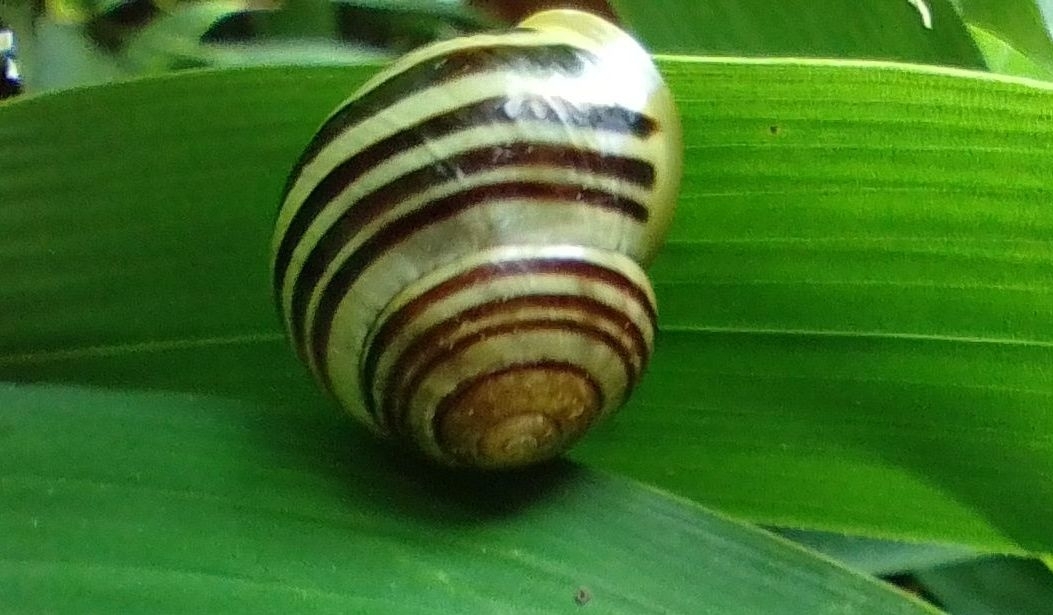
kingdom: Animalia
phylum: Mollusca
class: Gastropoda
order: Stylommatophora
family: Helicidae
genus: Cepaea
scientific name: Cepaea hortensis
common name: White-lip gardensnail
